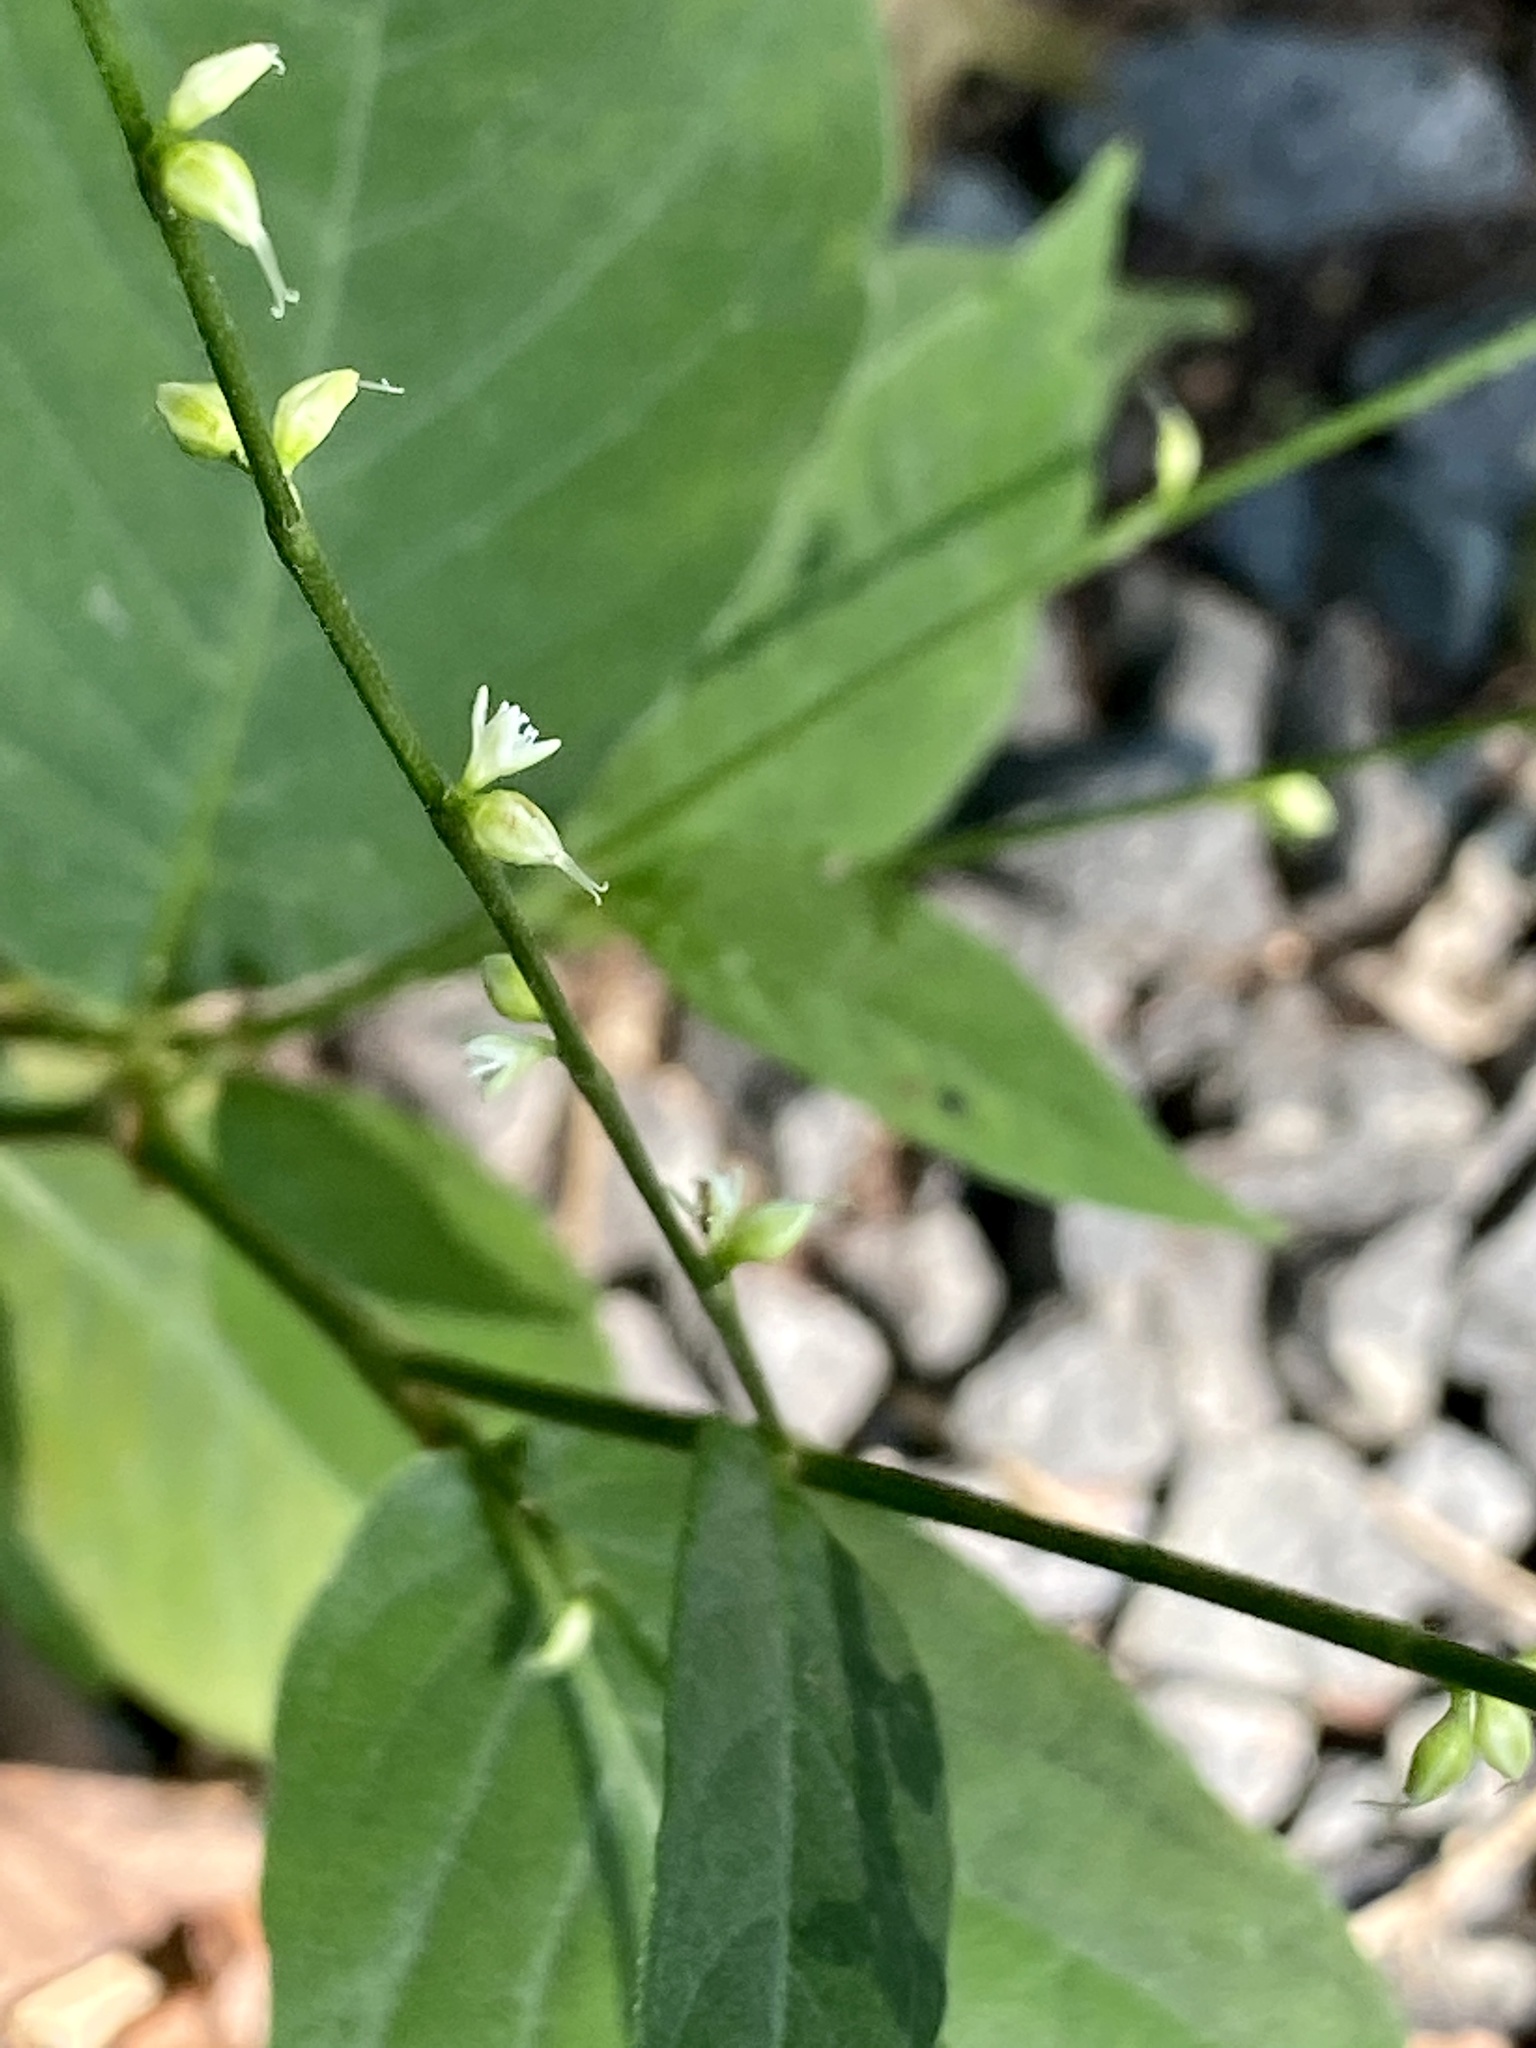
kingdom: Plantae
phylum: Tracheophyta
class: Magnoliopsida
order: Caryophyllales
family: Polygonaceae
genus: Persicaria
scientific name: Persicaria virginiana
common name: Jumpseed
